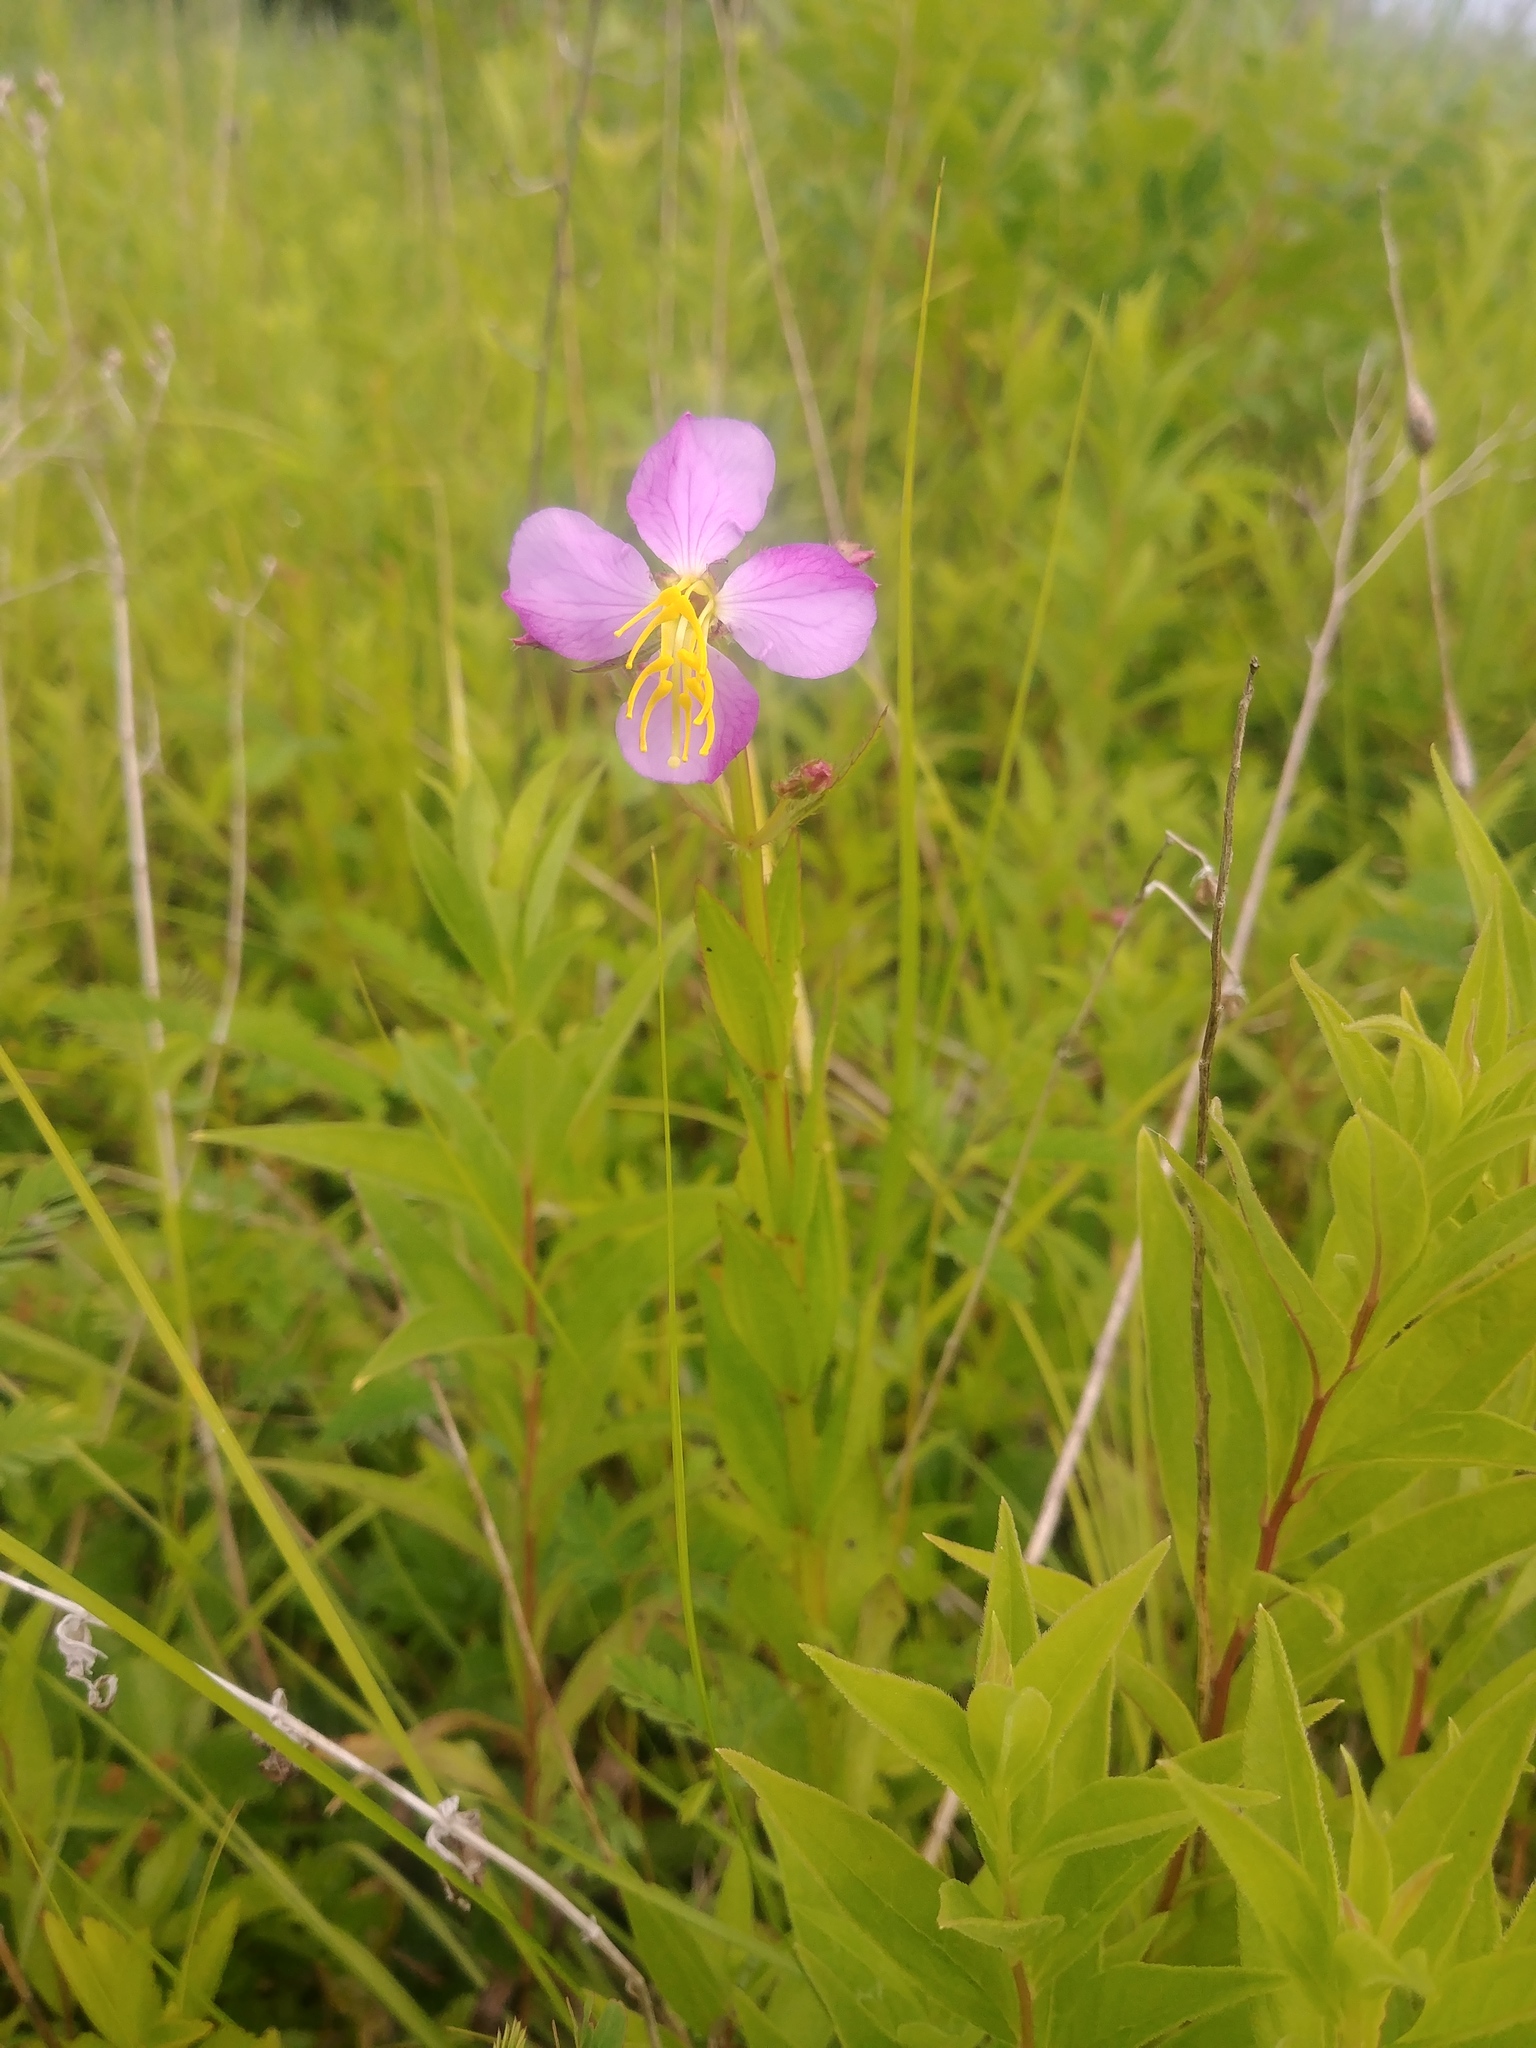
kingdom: Plantae
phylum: Tracheophyta
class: Magnoliopsida
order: Myrtales
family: Melastomataceae
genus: Rhexia
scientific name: Rhexia virginica
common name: Common meadow beauty
